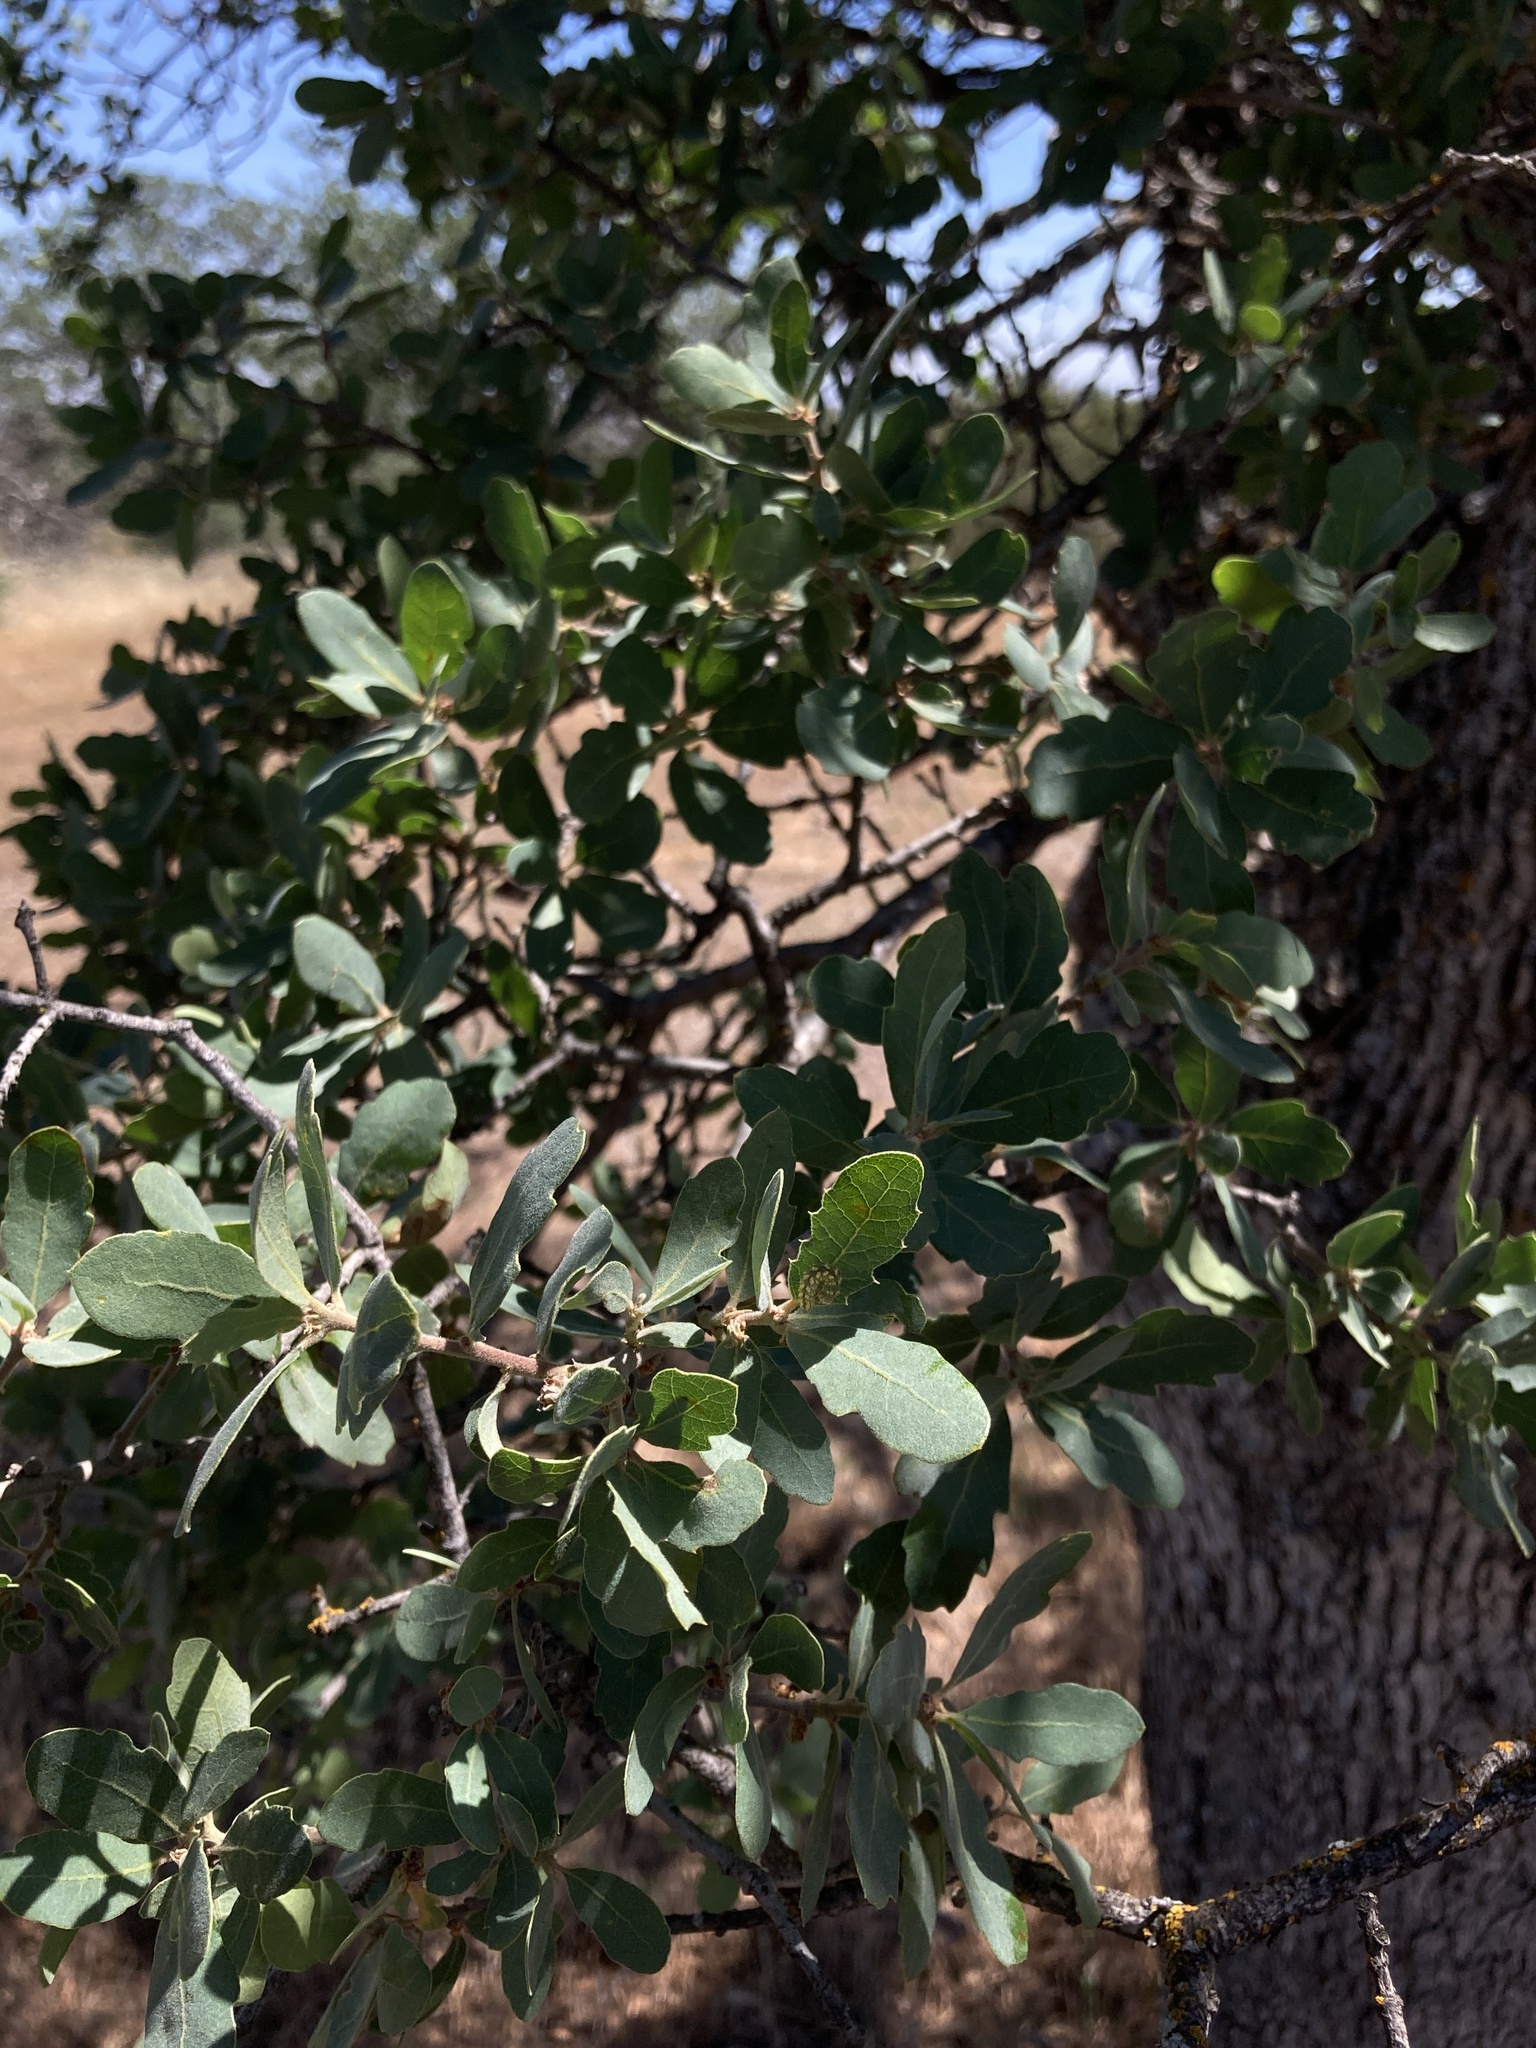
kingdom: Plantae
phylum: Tracheophyta
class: Magnoliopsida
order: Fagales
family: Fagaceae
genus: Quercus
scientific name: Quercus douglasii
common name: Blue oak
